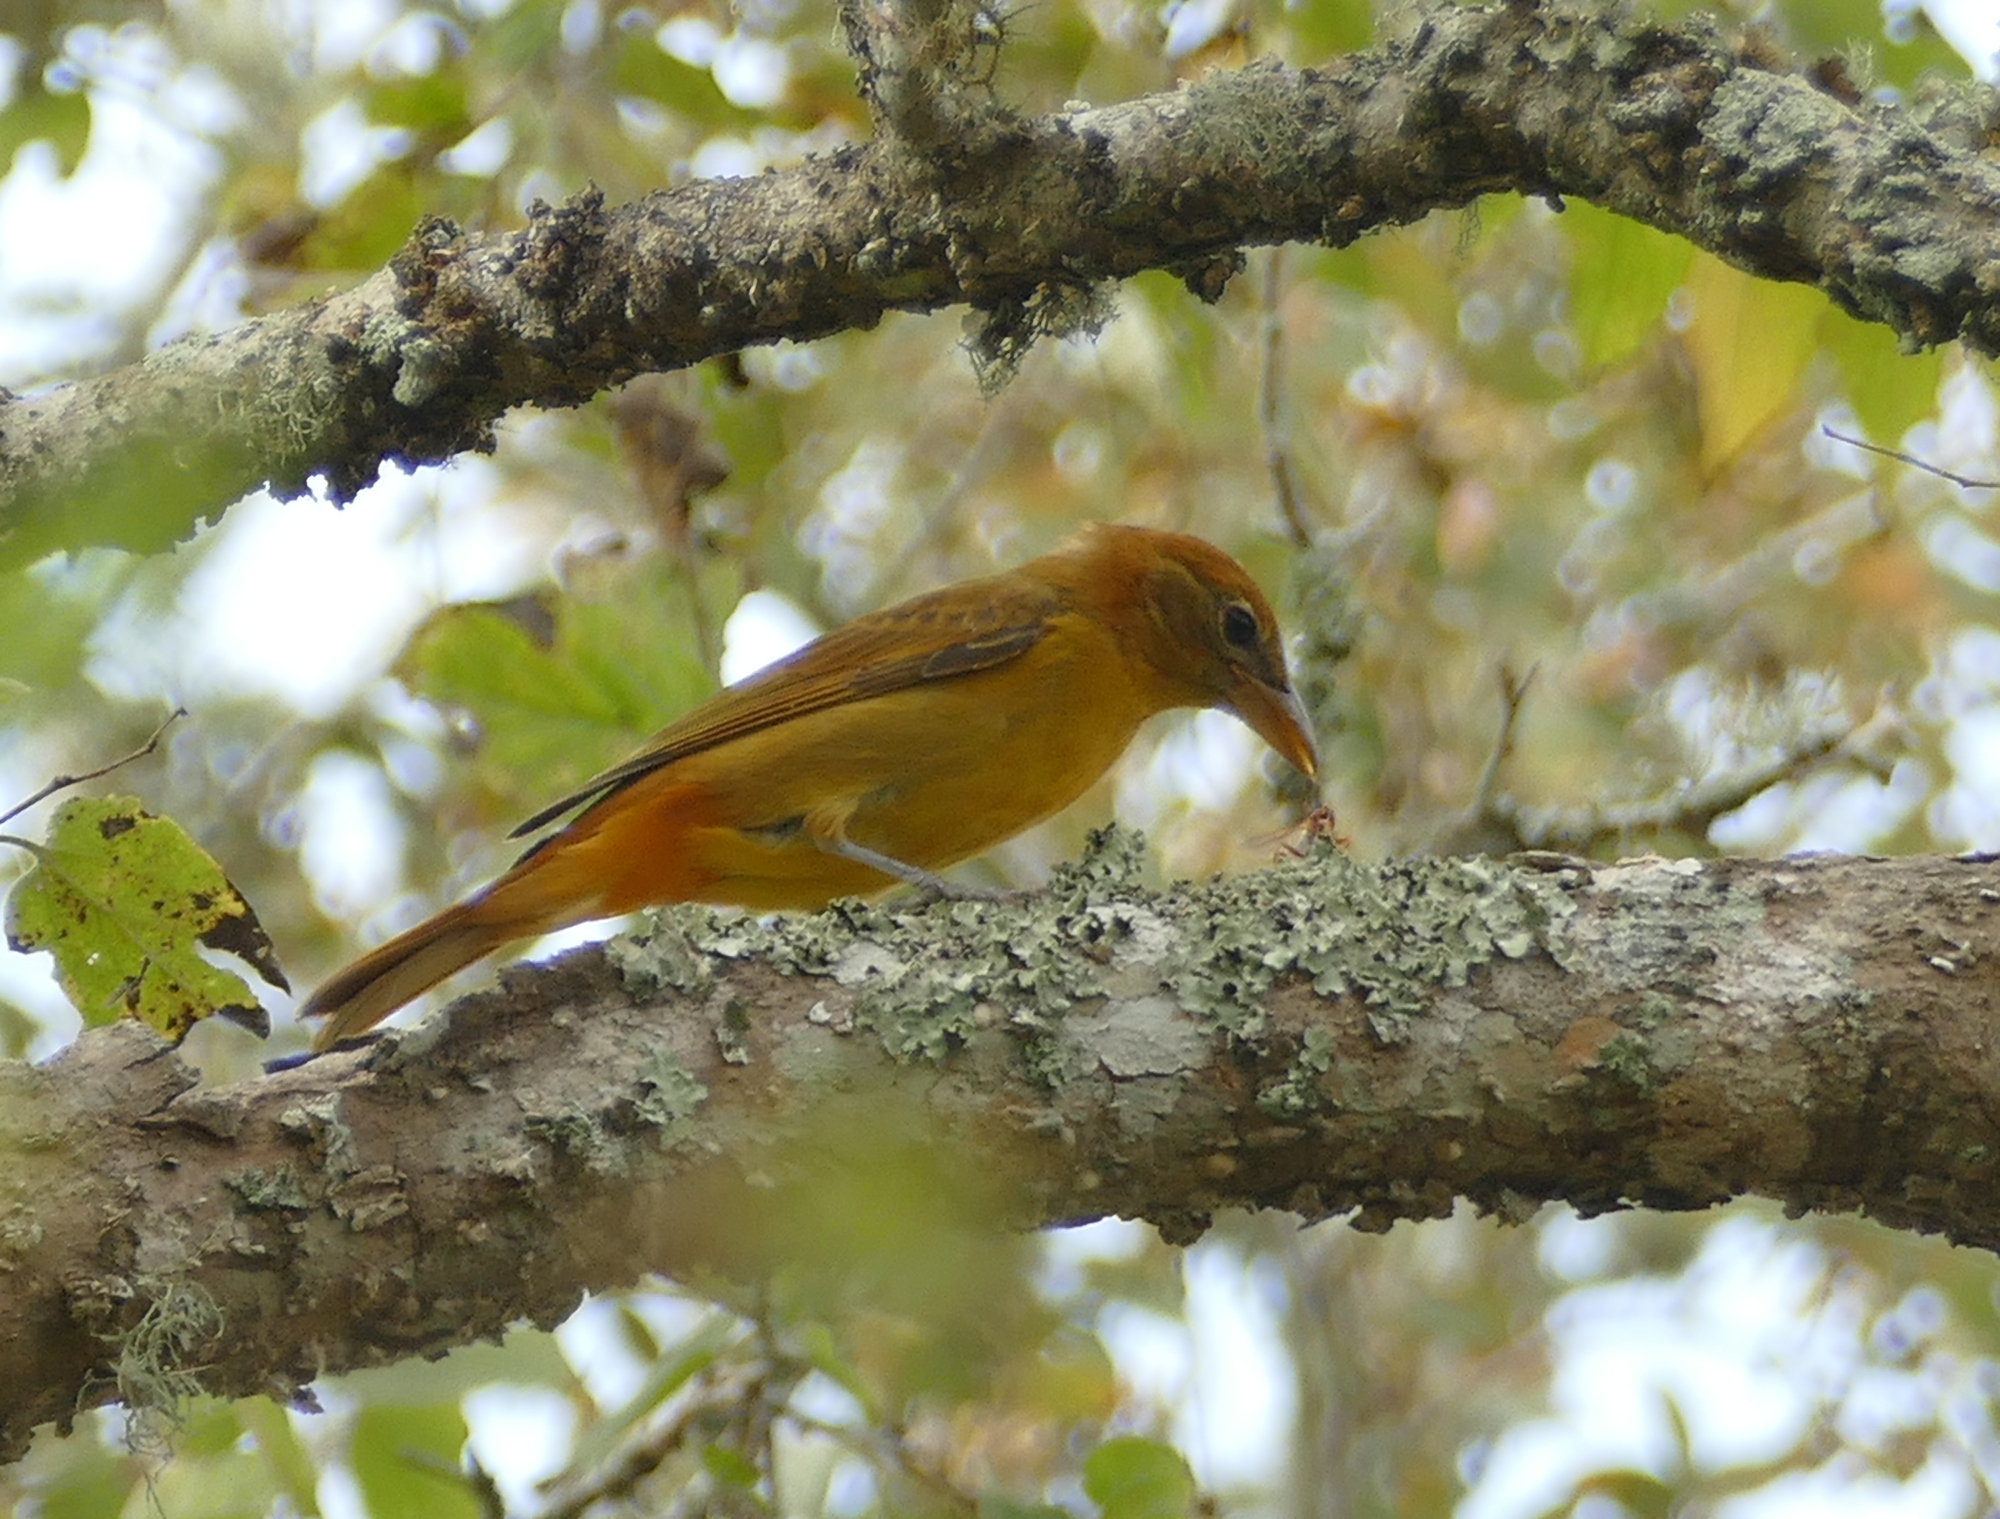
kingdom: Animalia
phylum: Chordata
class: Aves
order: Passeriformes
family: Cardinalidae
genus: Piranga
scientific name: Piranga rubra
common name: Summer tanager
